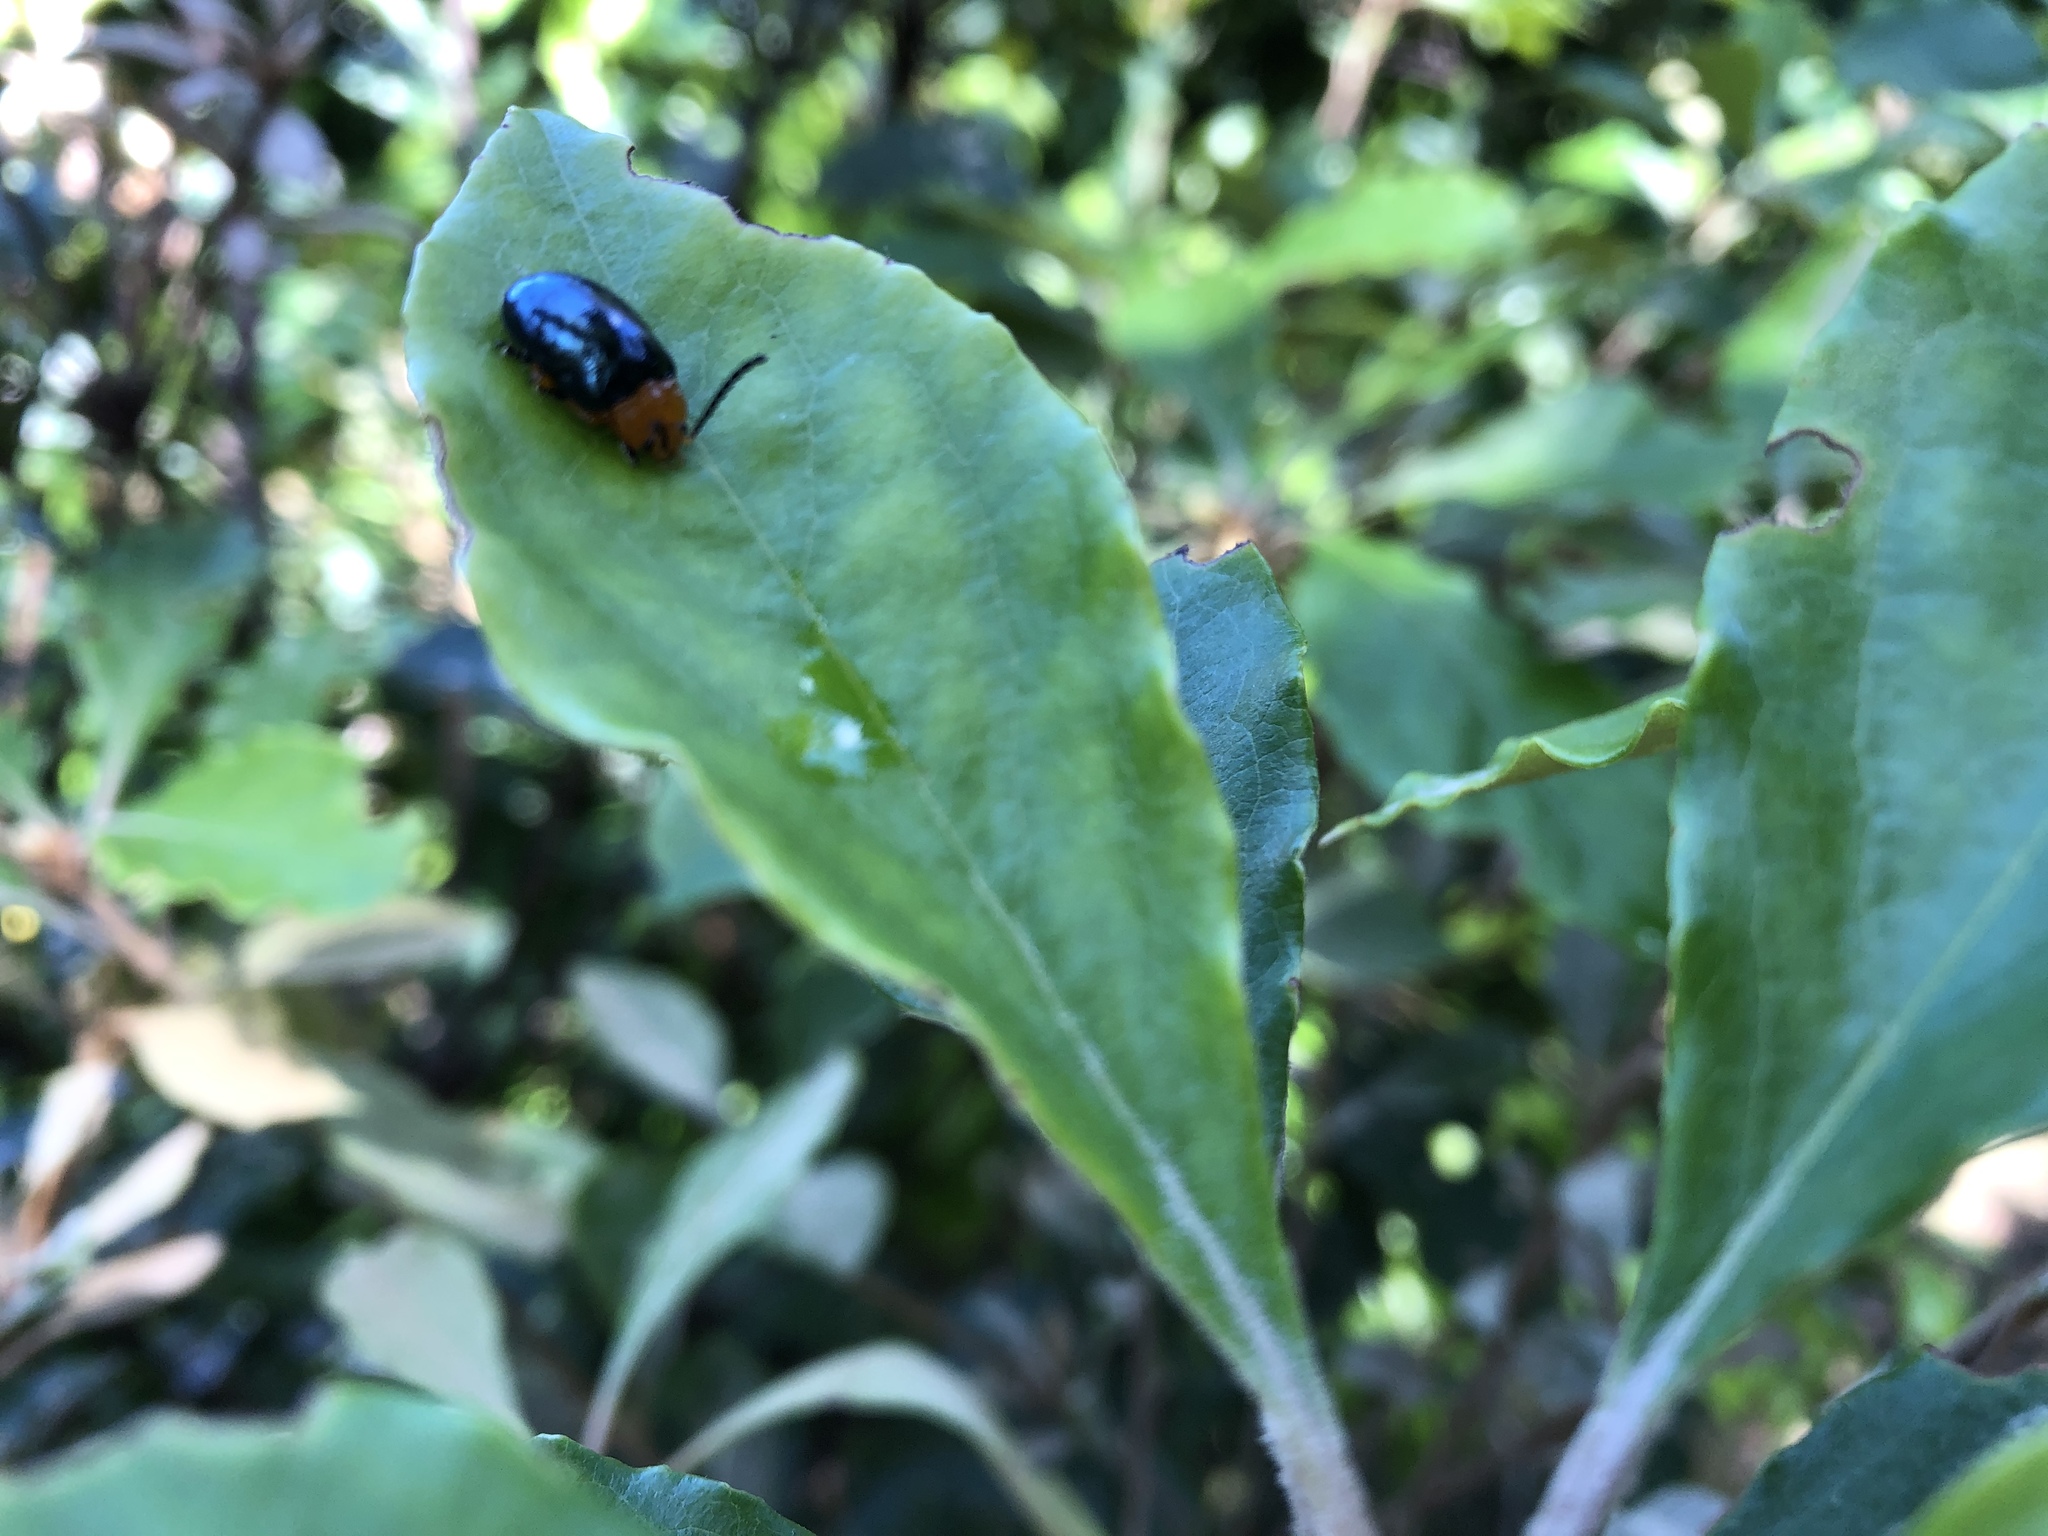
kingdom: Animalia
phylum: Arthropoda
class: Insecta
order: Coleoptera
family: Chrysomelidae
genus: Lamprolina
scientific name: Lamprolina
